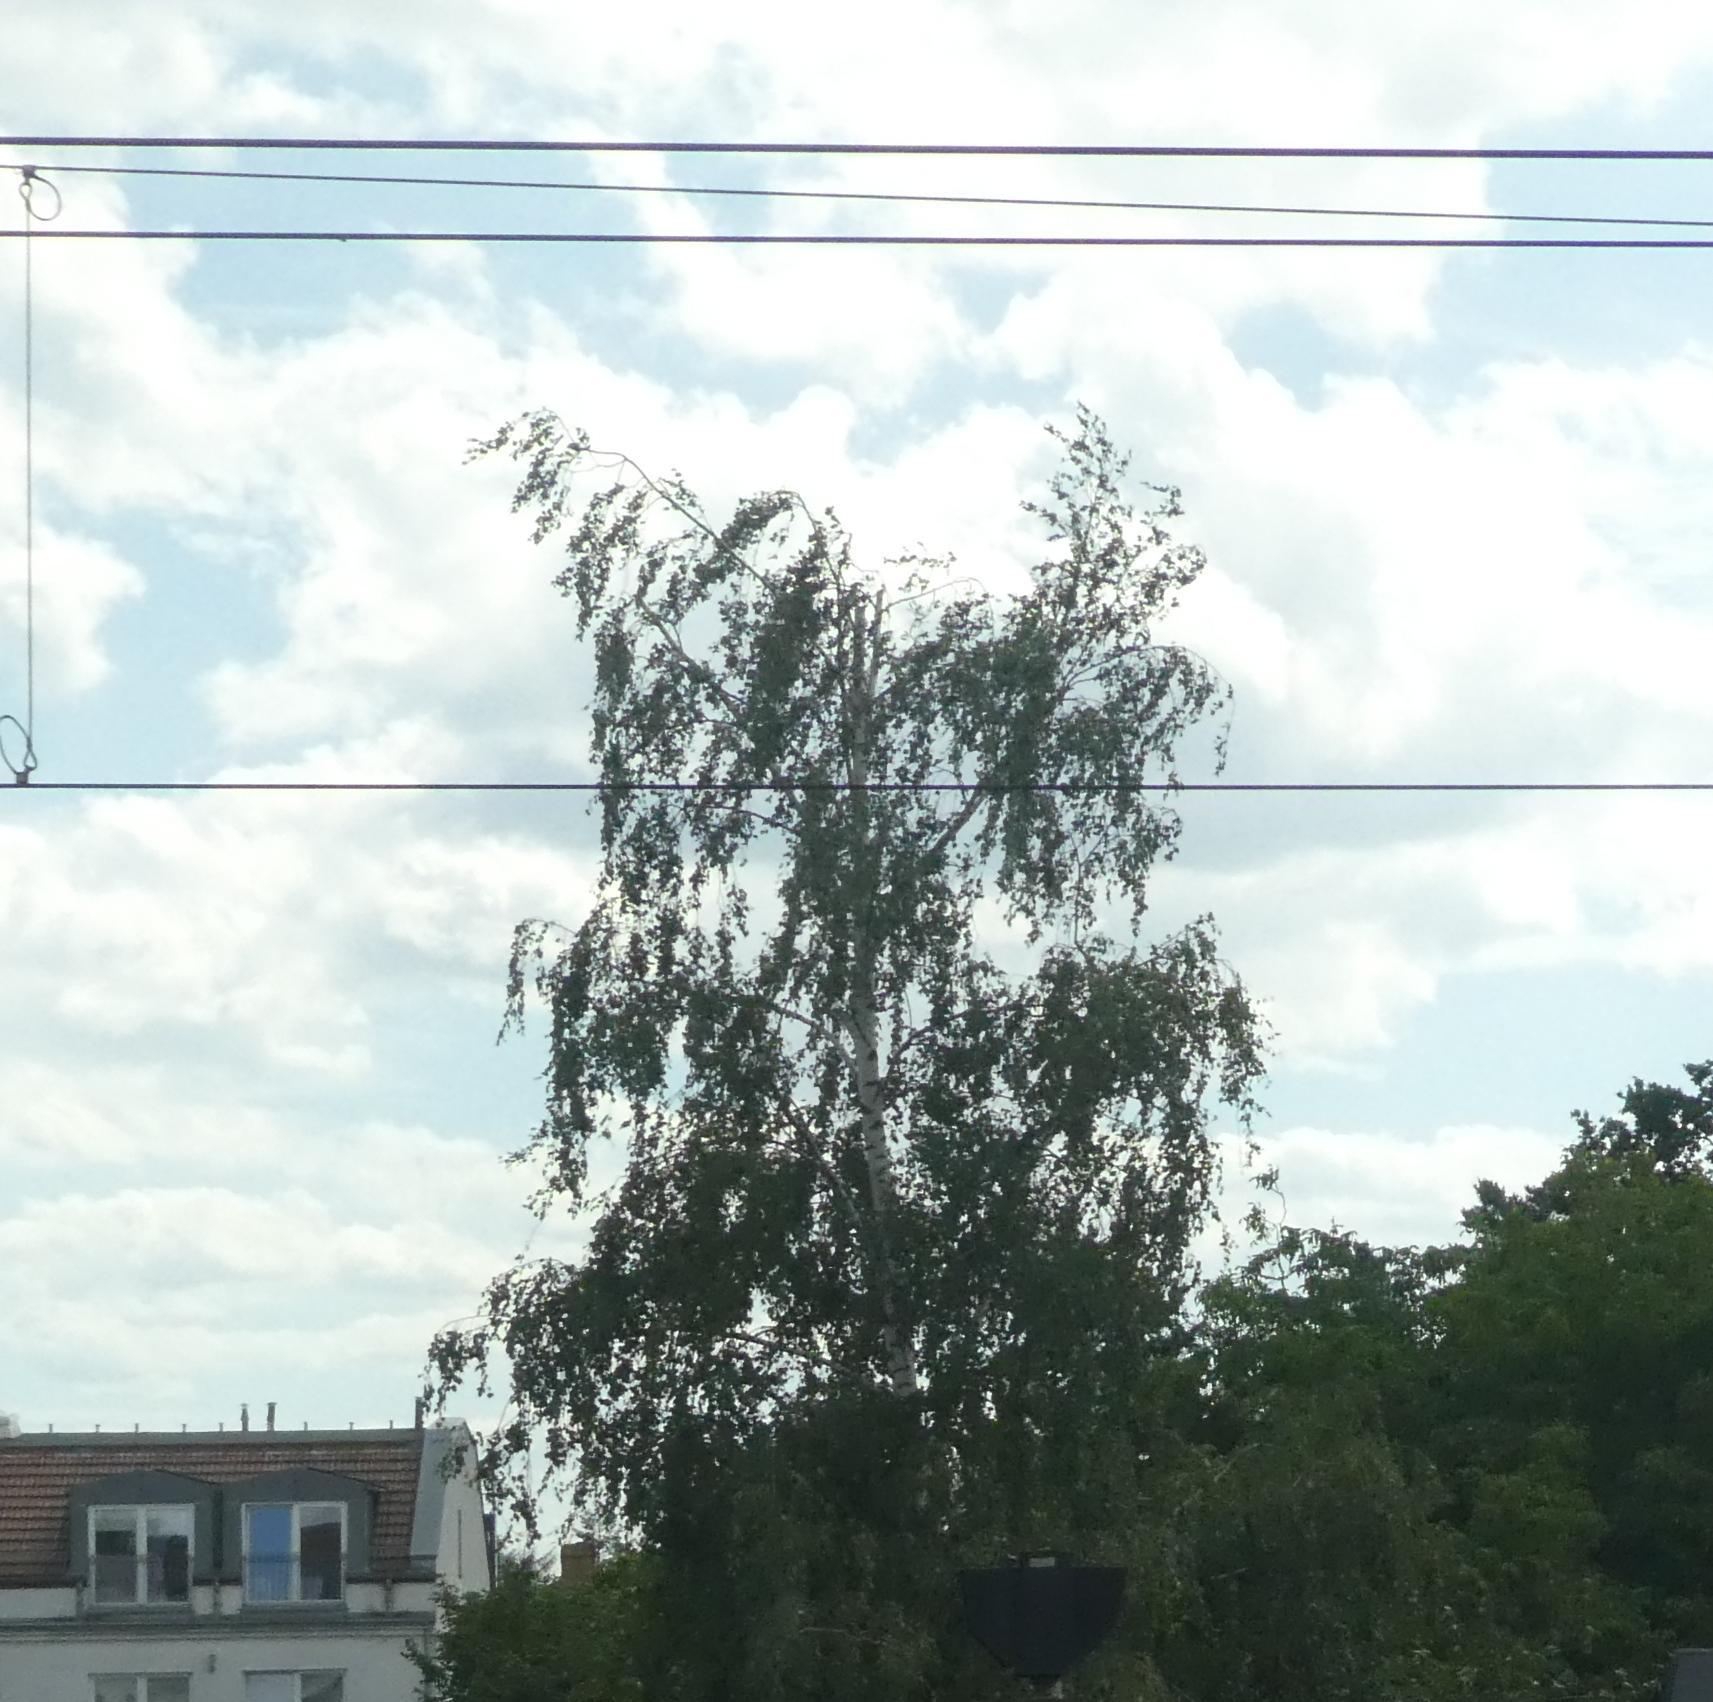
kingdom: Plantae
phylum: Tracheophyta
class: Magnoliopsida
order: Fagales
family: Betulaceae
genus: Betula
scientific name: Betula pendula
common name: Silver birch
